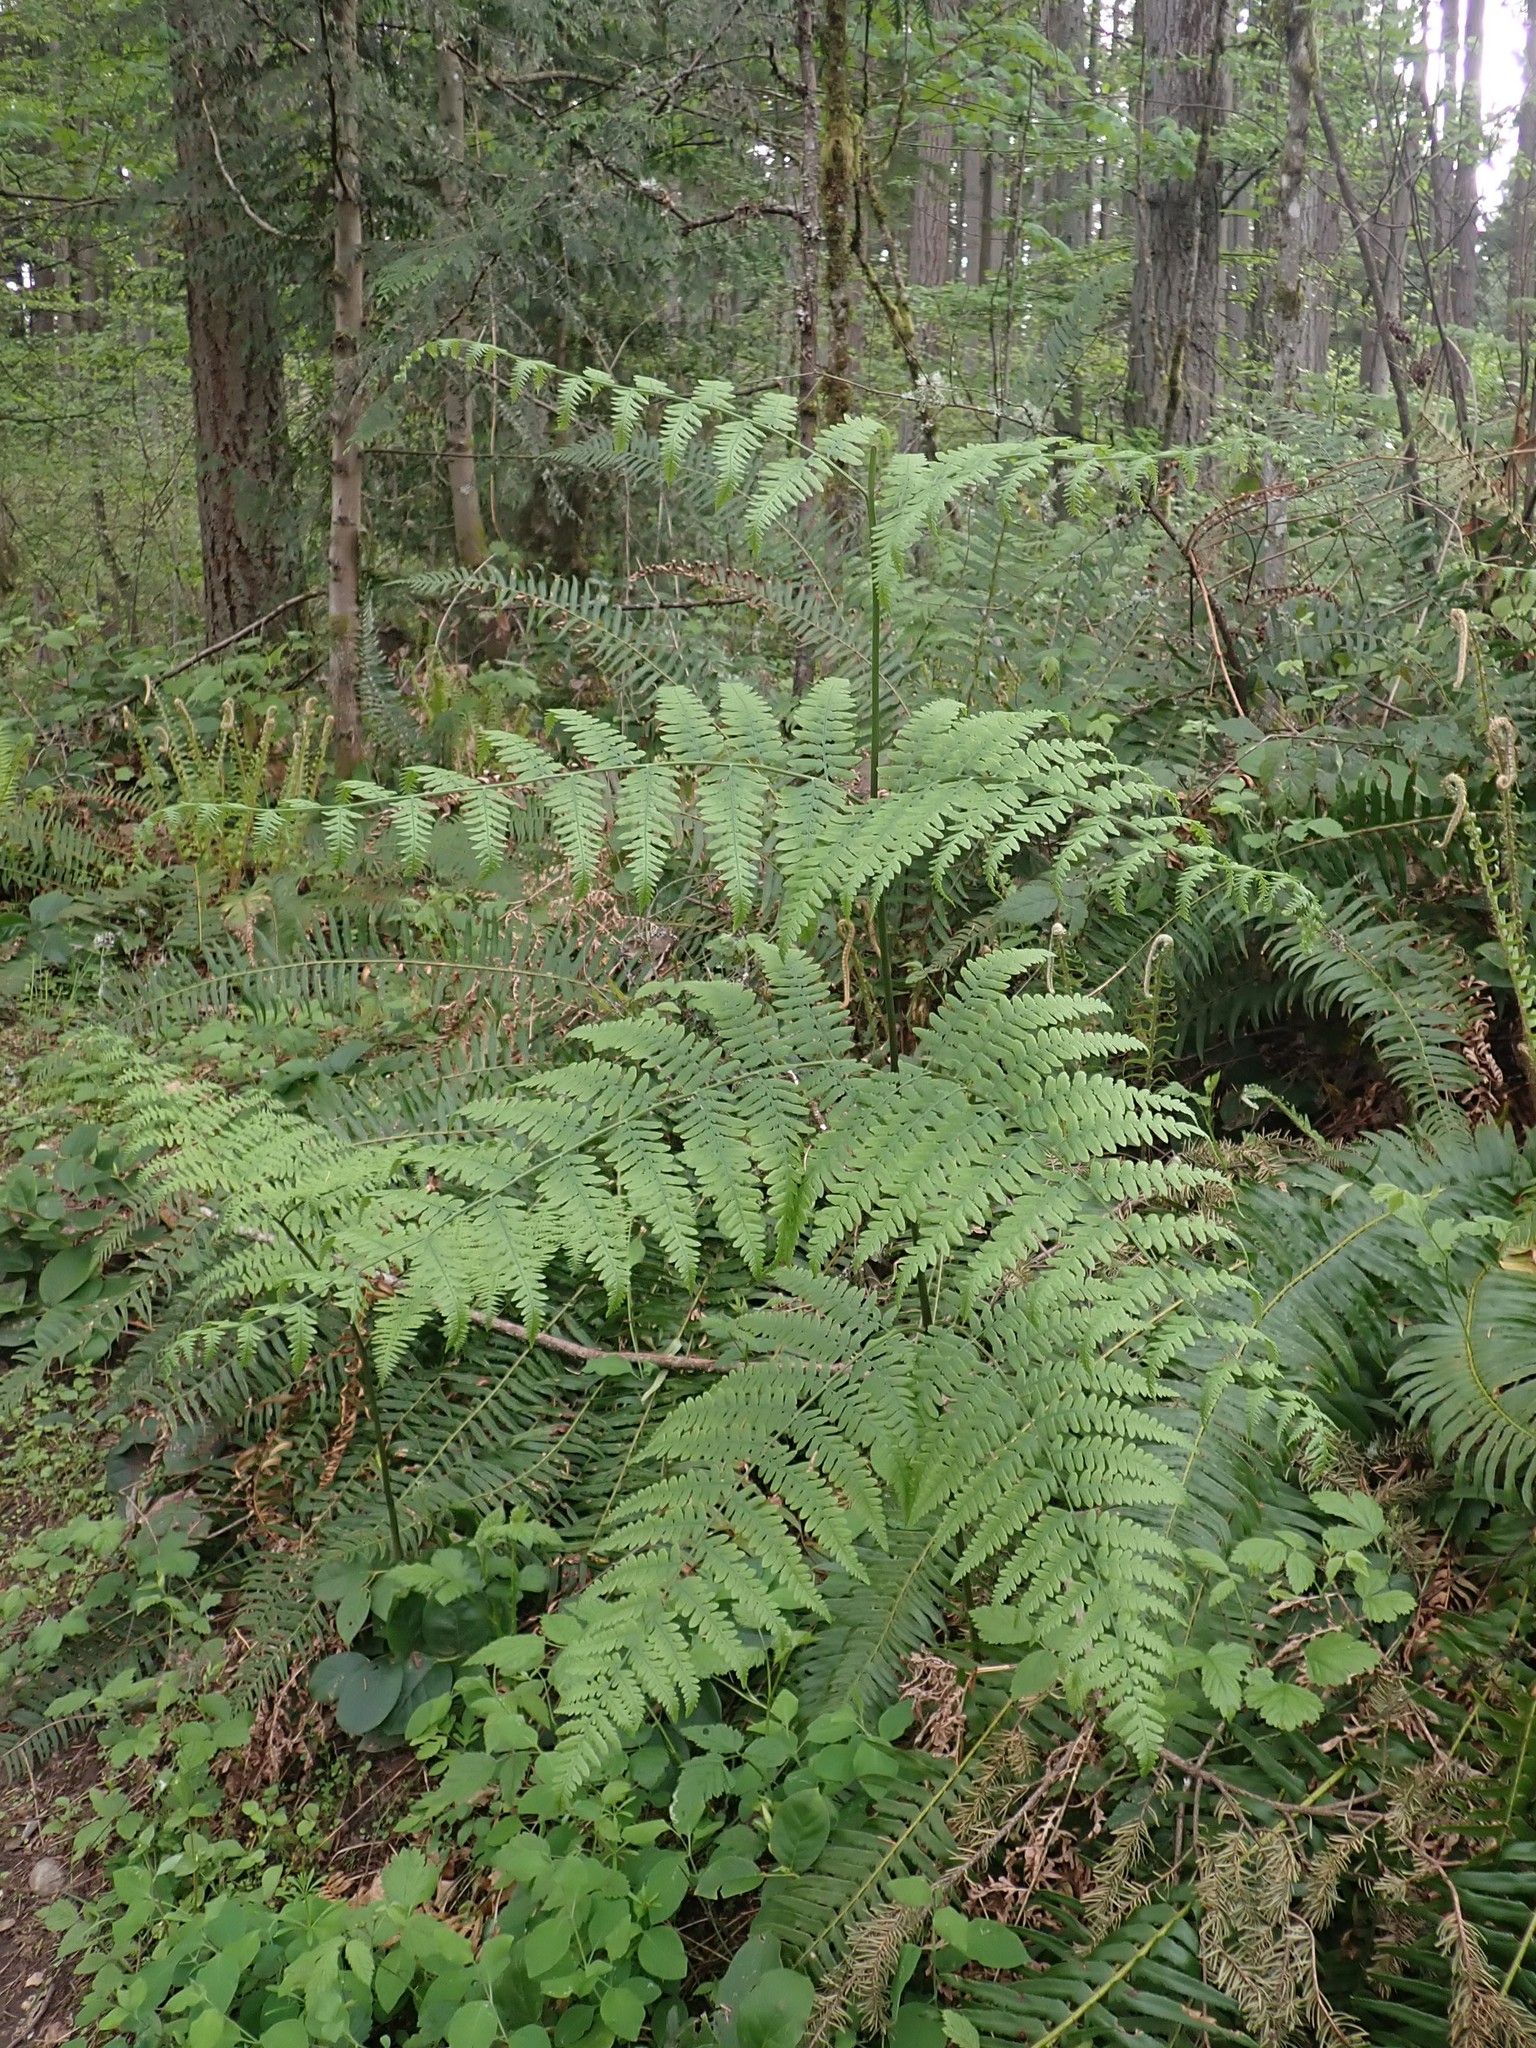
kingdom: Plantae
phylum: Tracheophyta
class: Polypodiopsida
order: Polypodiales
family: Dennstaedtiaceae
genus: Pteridium
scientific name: Pteridium aquilinum
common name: Bracken
